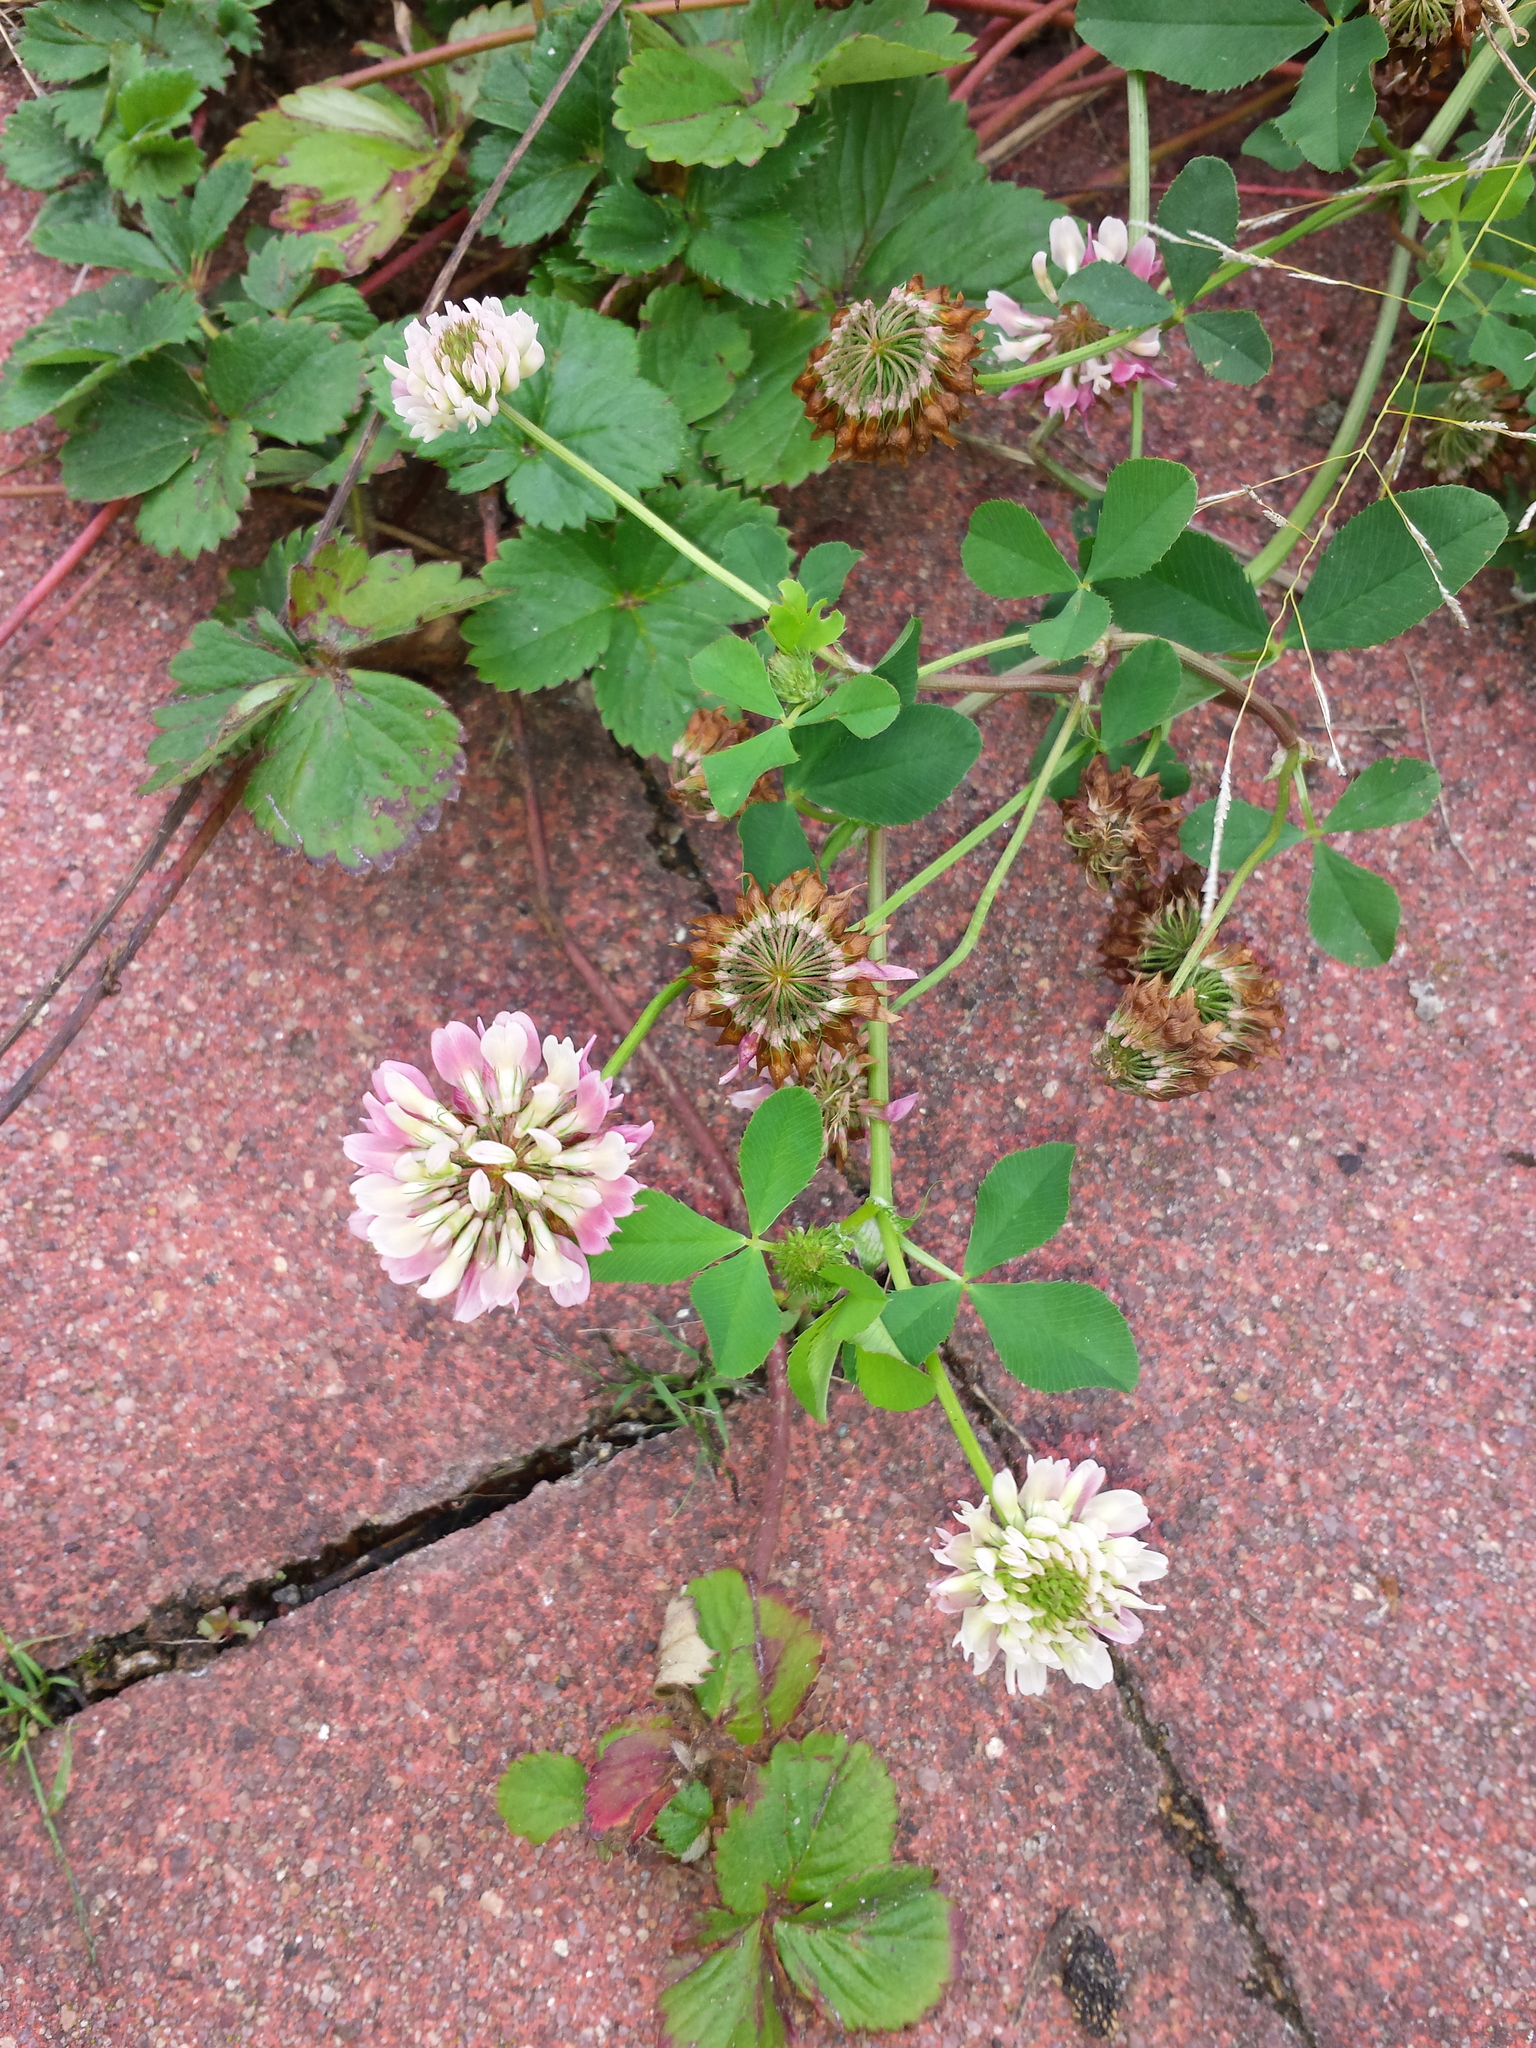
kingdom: Plantae
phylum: Tracheophyta
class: Magnoliopsida
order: Fabales
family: Fabaceae
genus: Trifolium
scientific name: Trifolium hybridum
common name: Alsike clover
